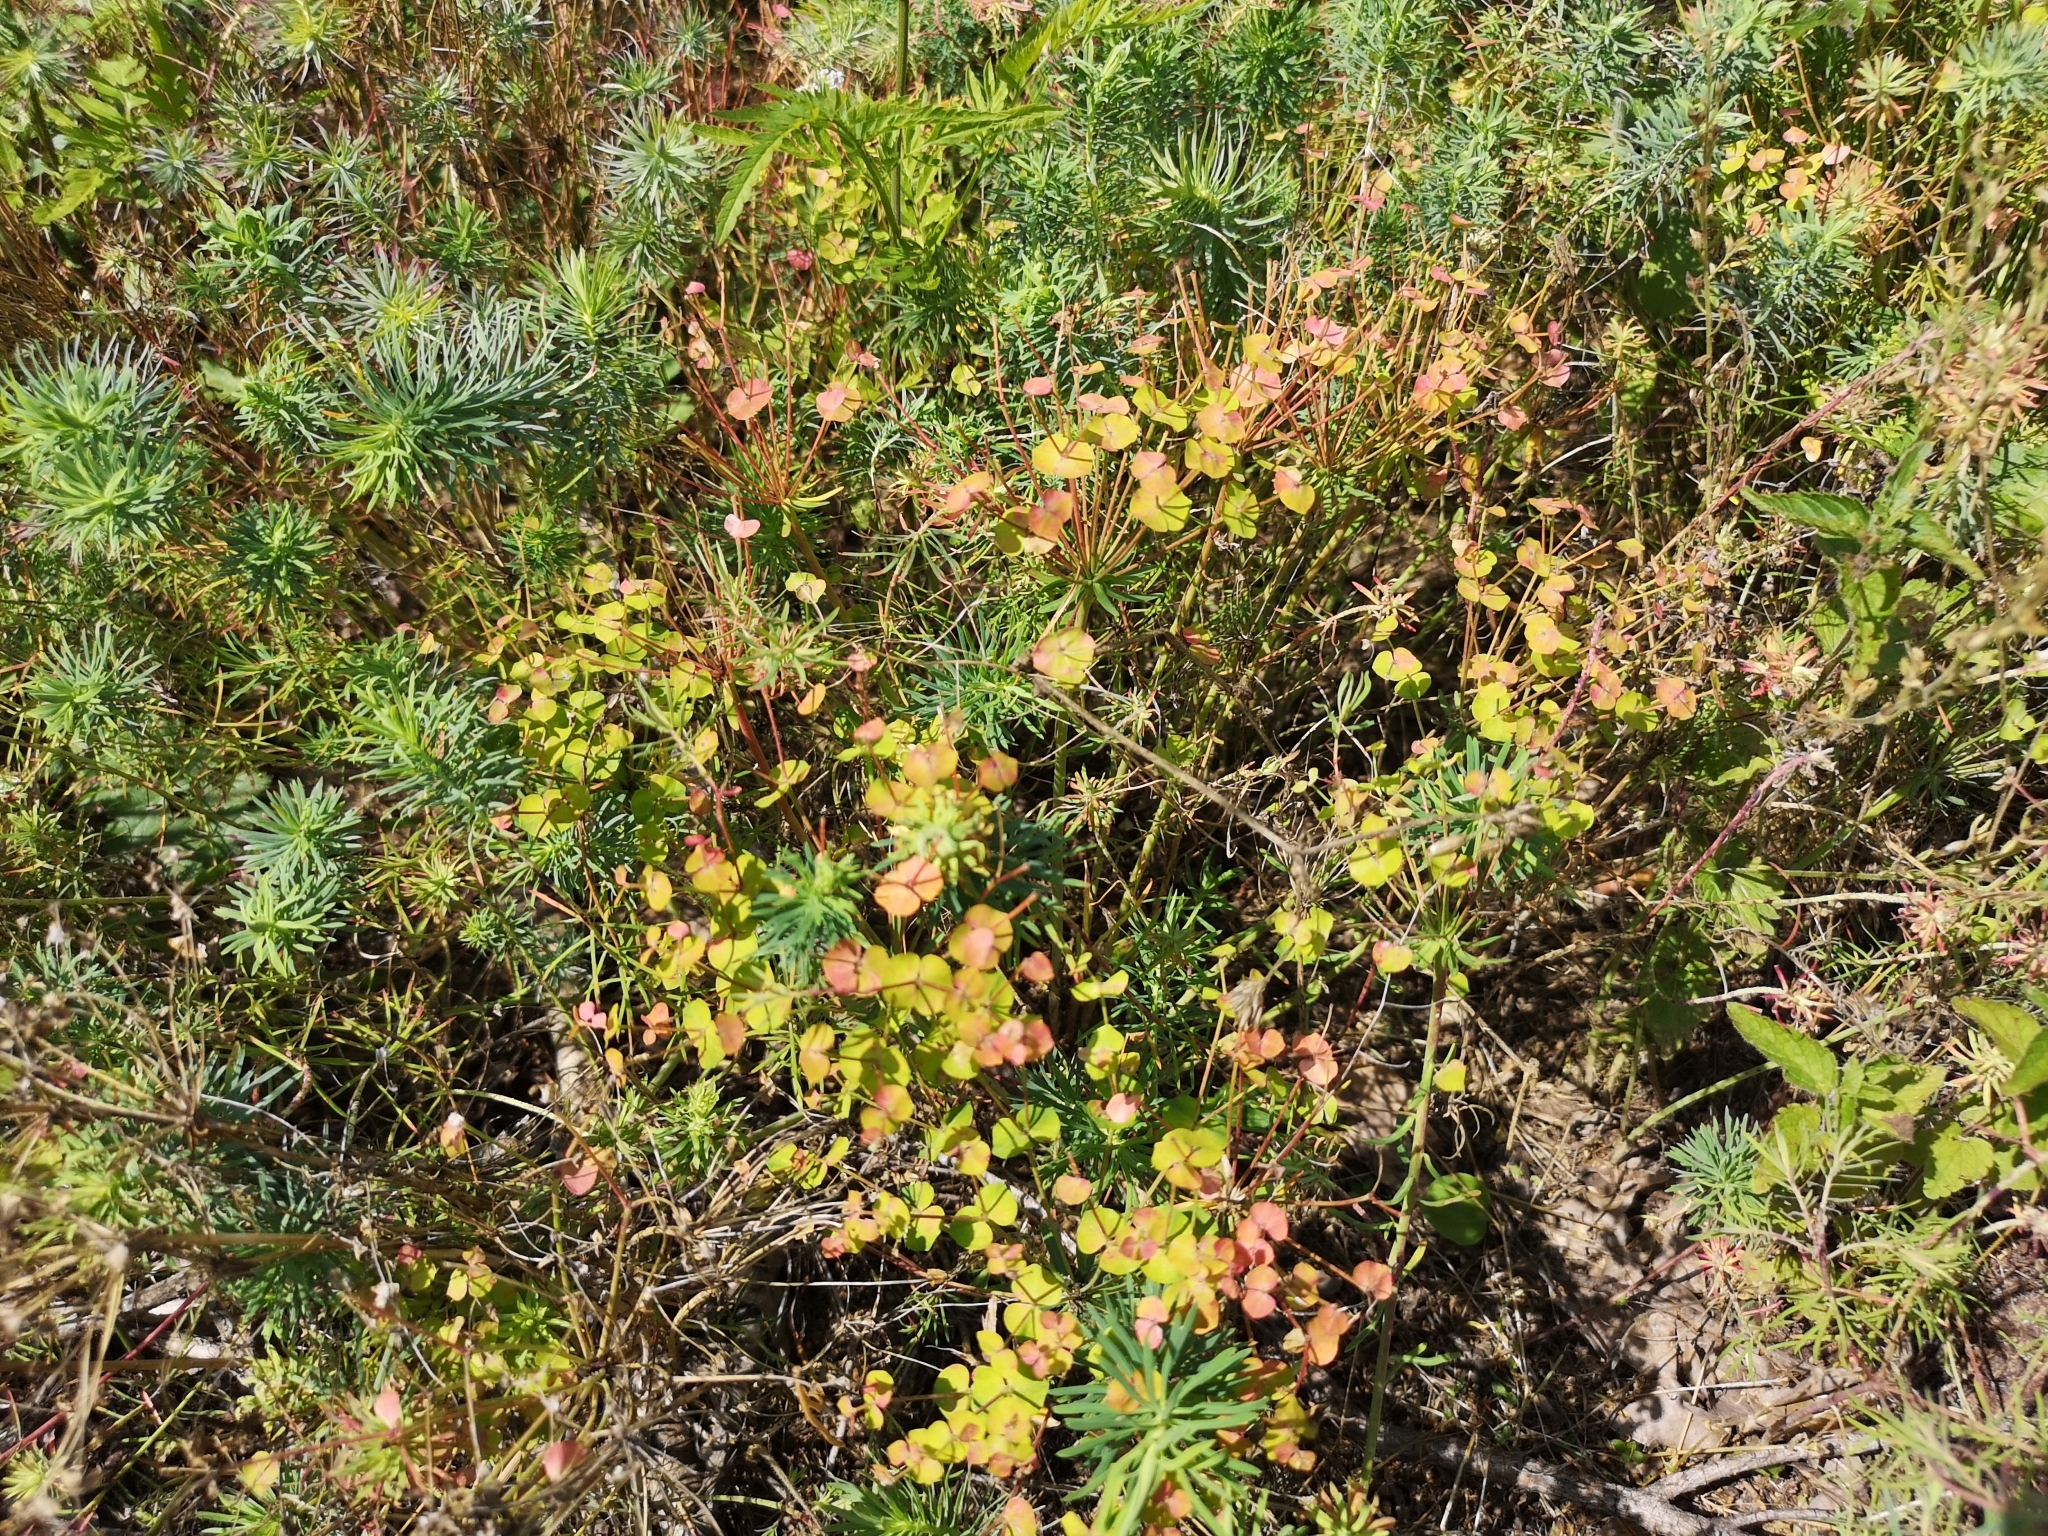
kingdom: Plantae
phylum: Tracheophyta
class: Magnoliopsida
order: Malpighiales
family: Euphorbiaceae
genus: Euphorbia
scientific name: Euphorbia cyparissias
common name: Cypress spurge
